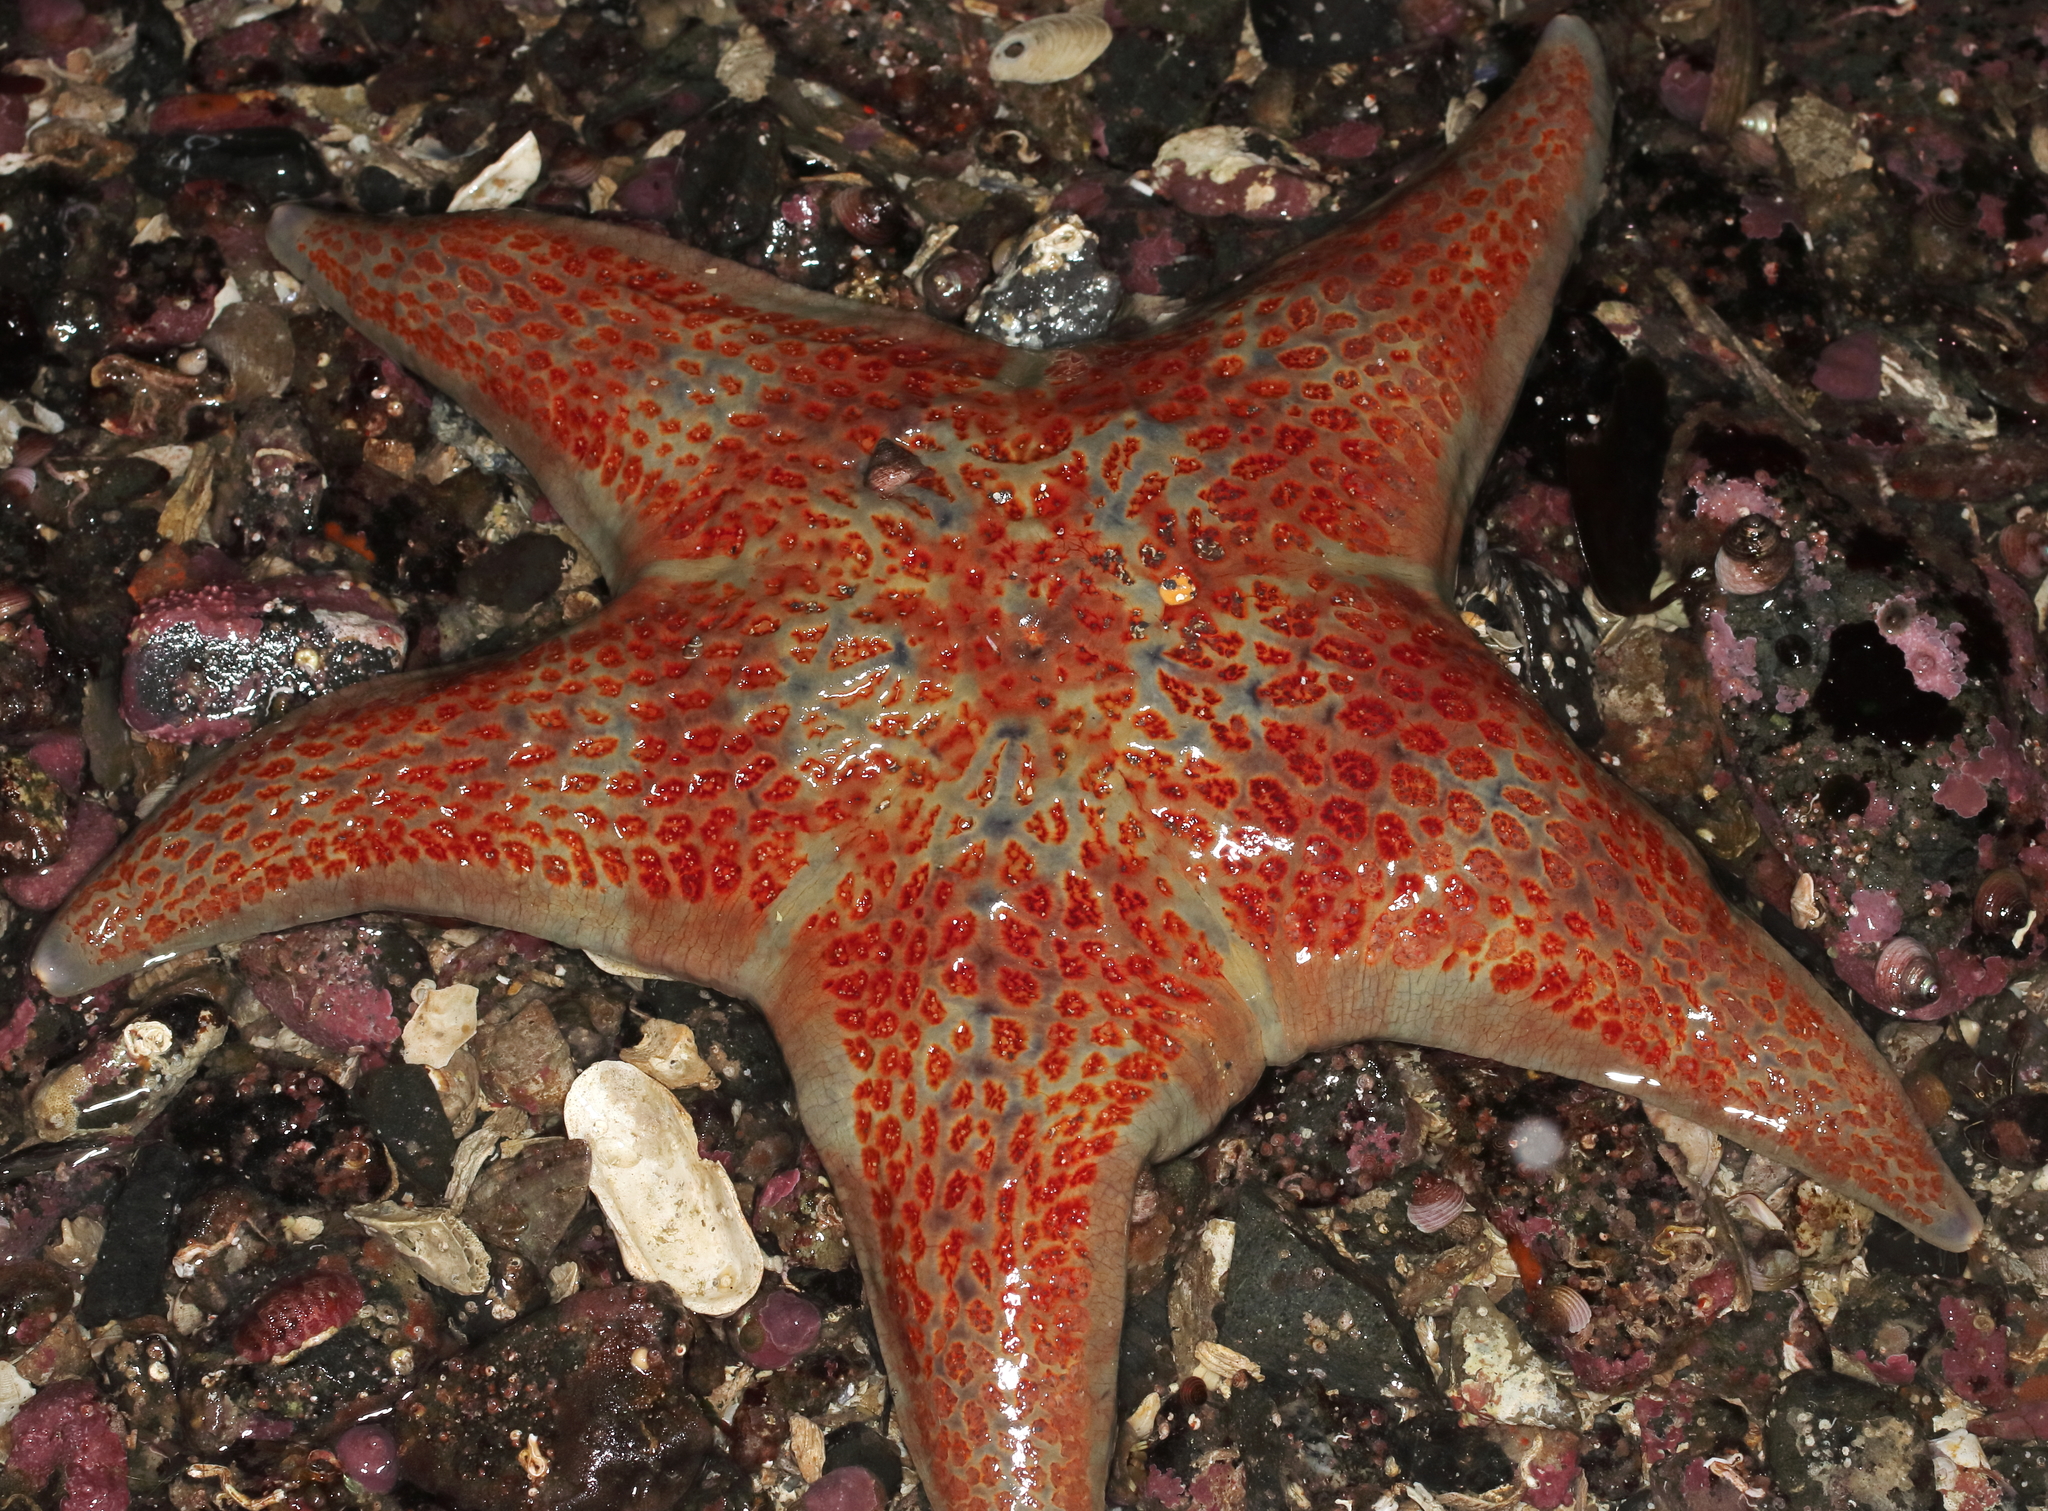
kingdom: Animalia
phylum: Echinodermata
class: Asteroidea
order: Valvatida
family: Asteropseidae
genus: Dermasterias
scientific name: Dermasterias imbricata
